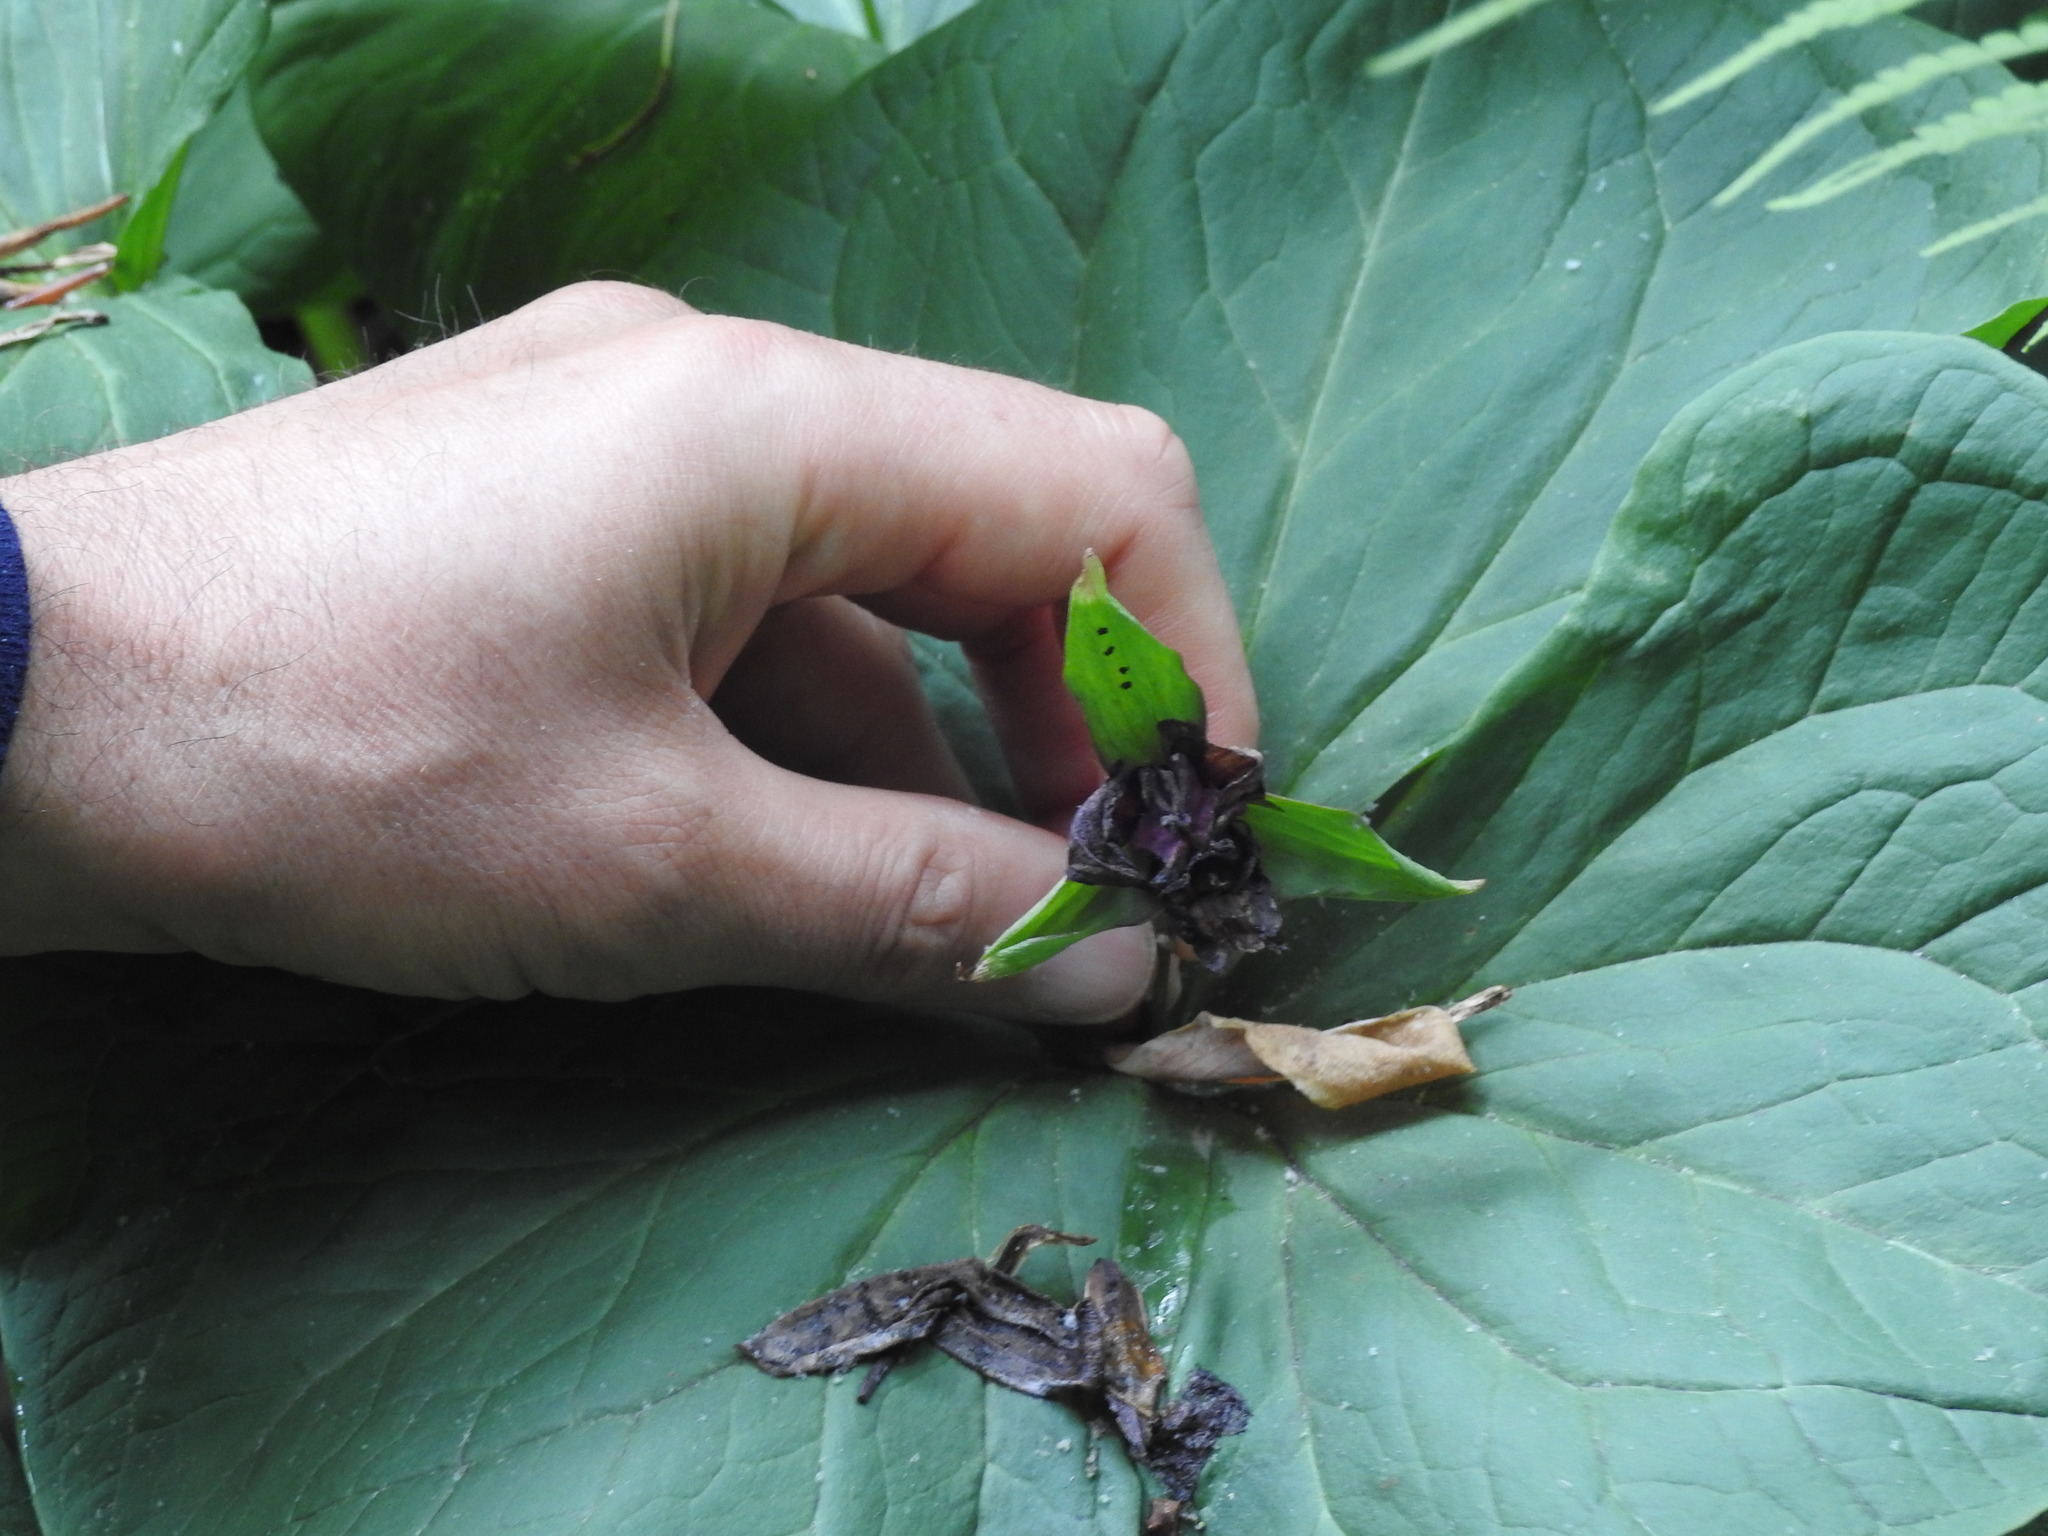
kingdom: Plantae
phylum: Tracheophyta
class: Liliopsida
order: Liliales
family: Melanthiaceae
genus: Trillium
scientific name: Trillium erectum
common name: Purple trillium
